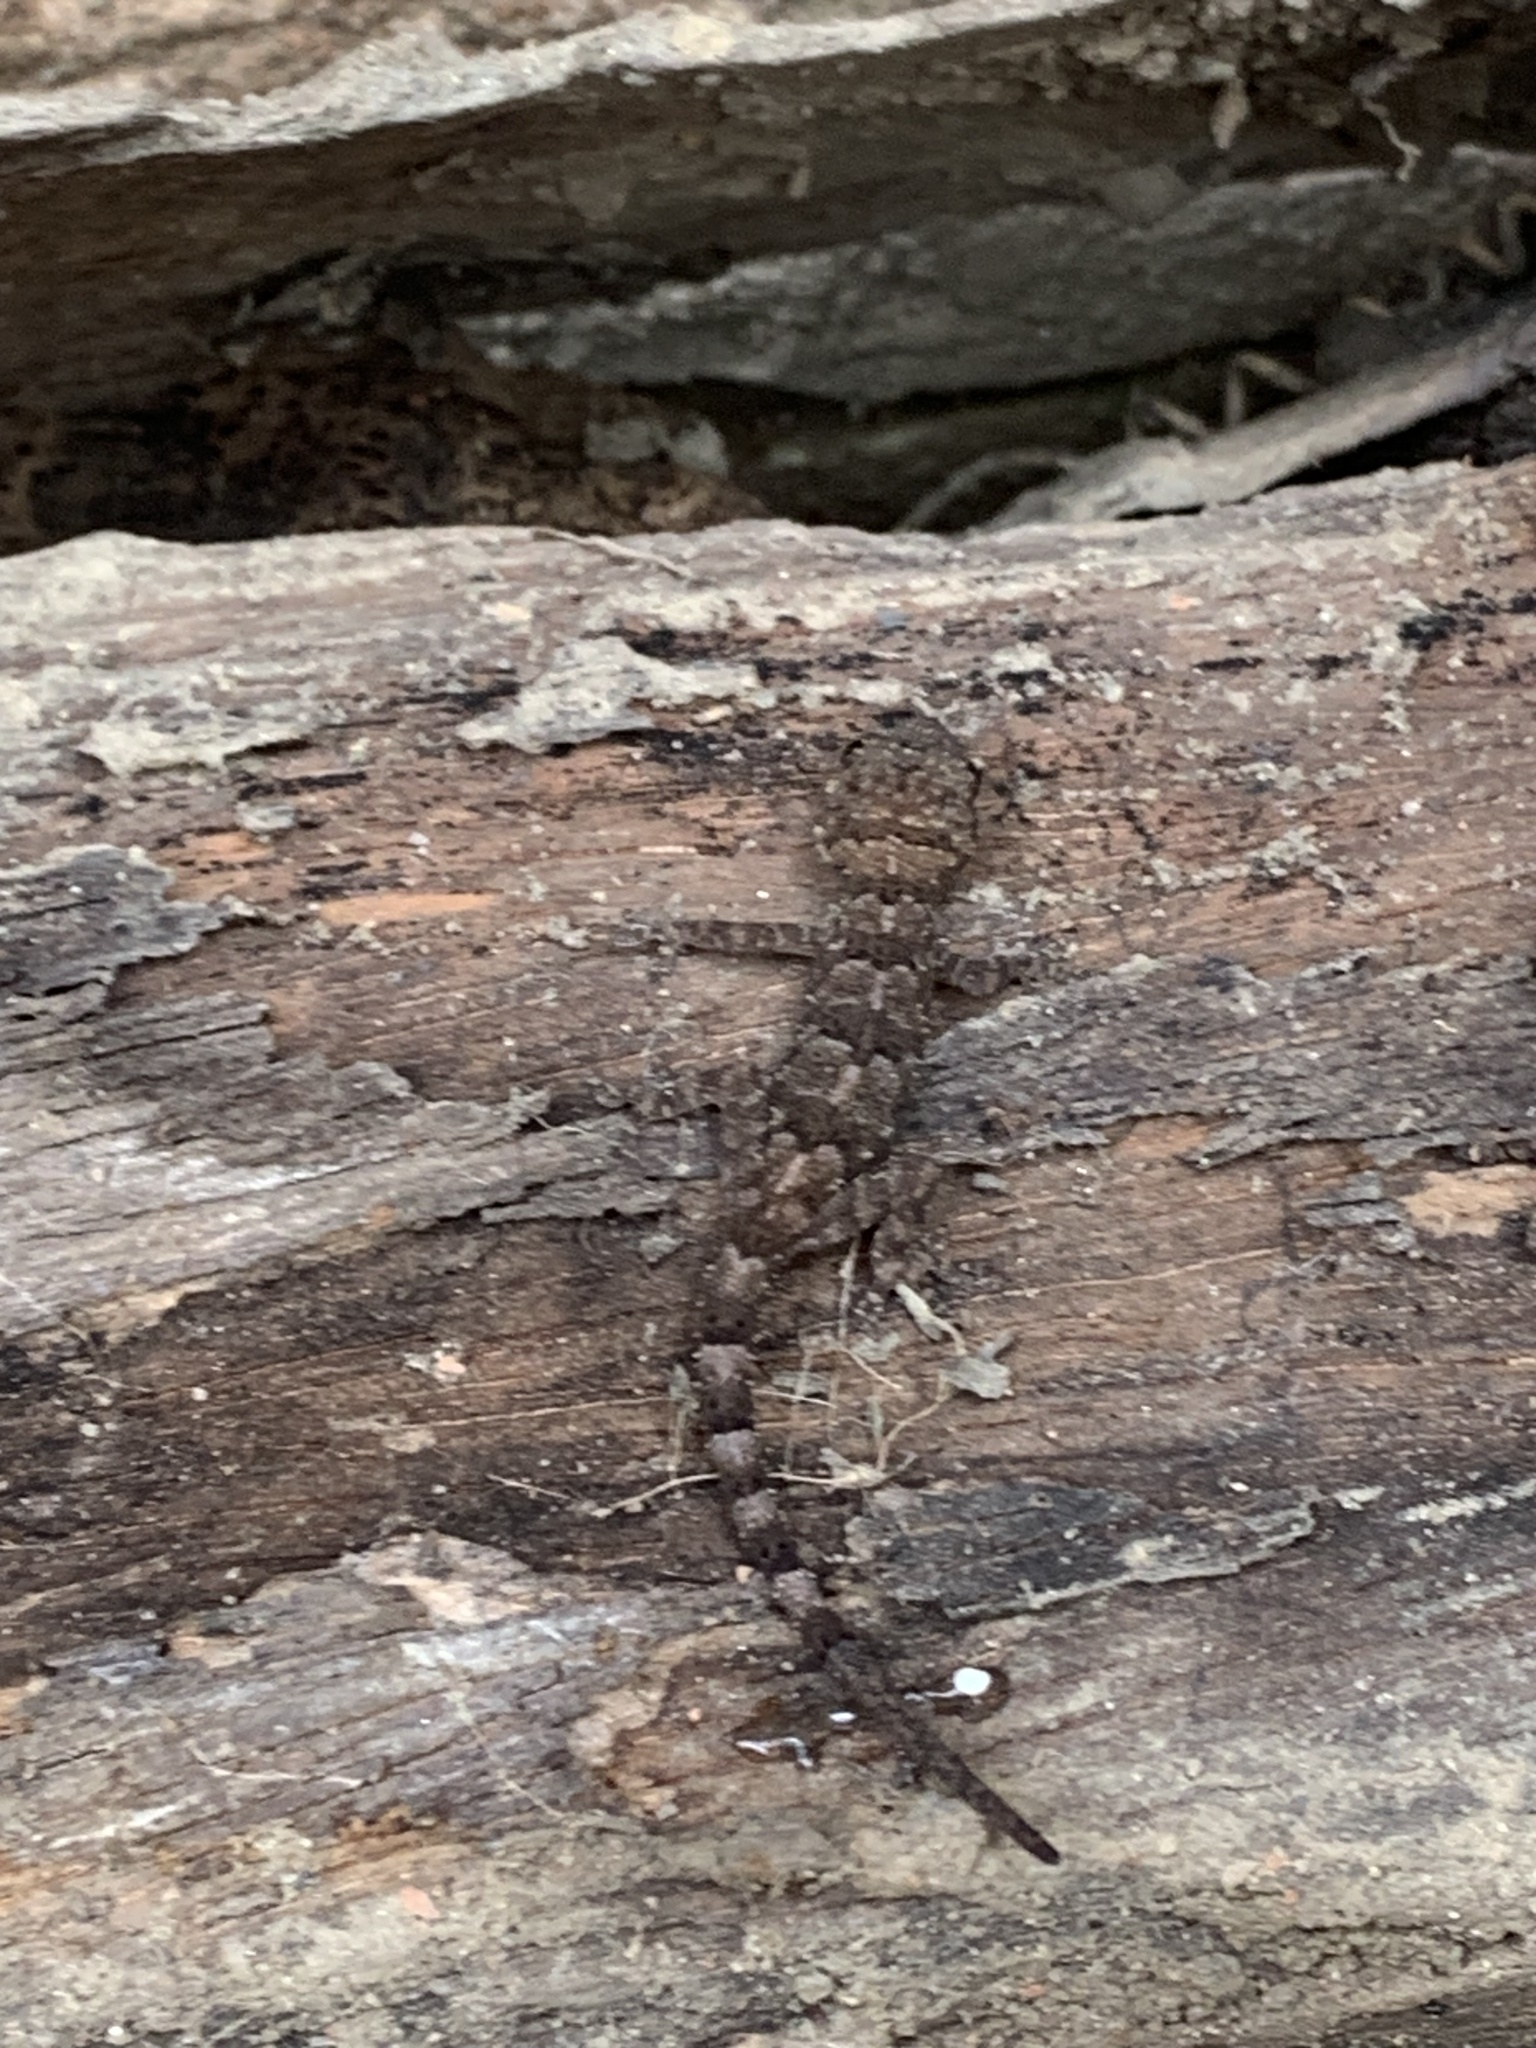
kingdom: Animalia
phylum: Chordata
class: Squamata
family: Gekkonidae
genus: Hemidactylus
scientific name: Hemidactylus mabouia
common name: House gecko
